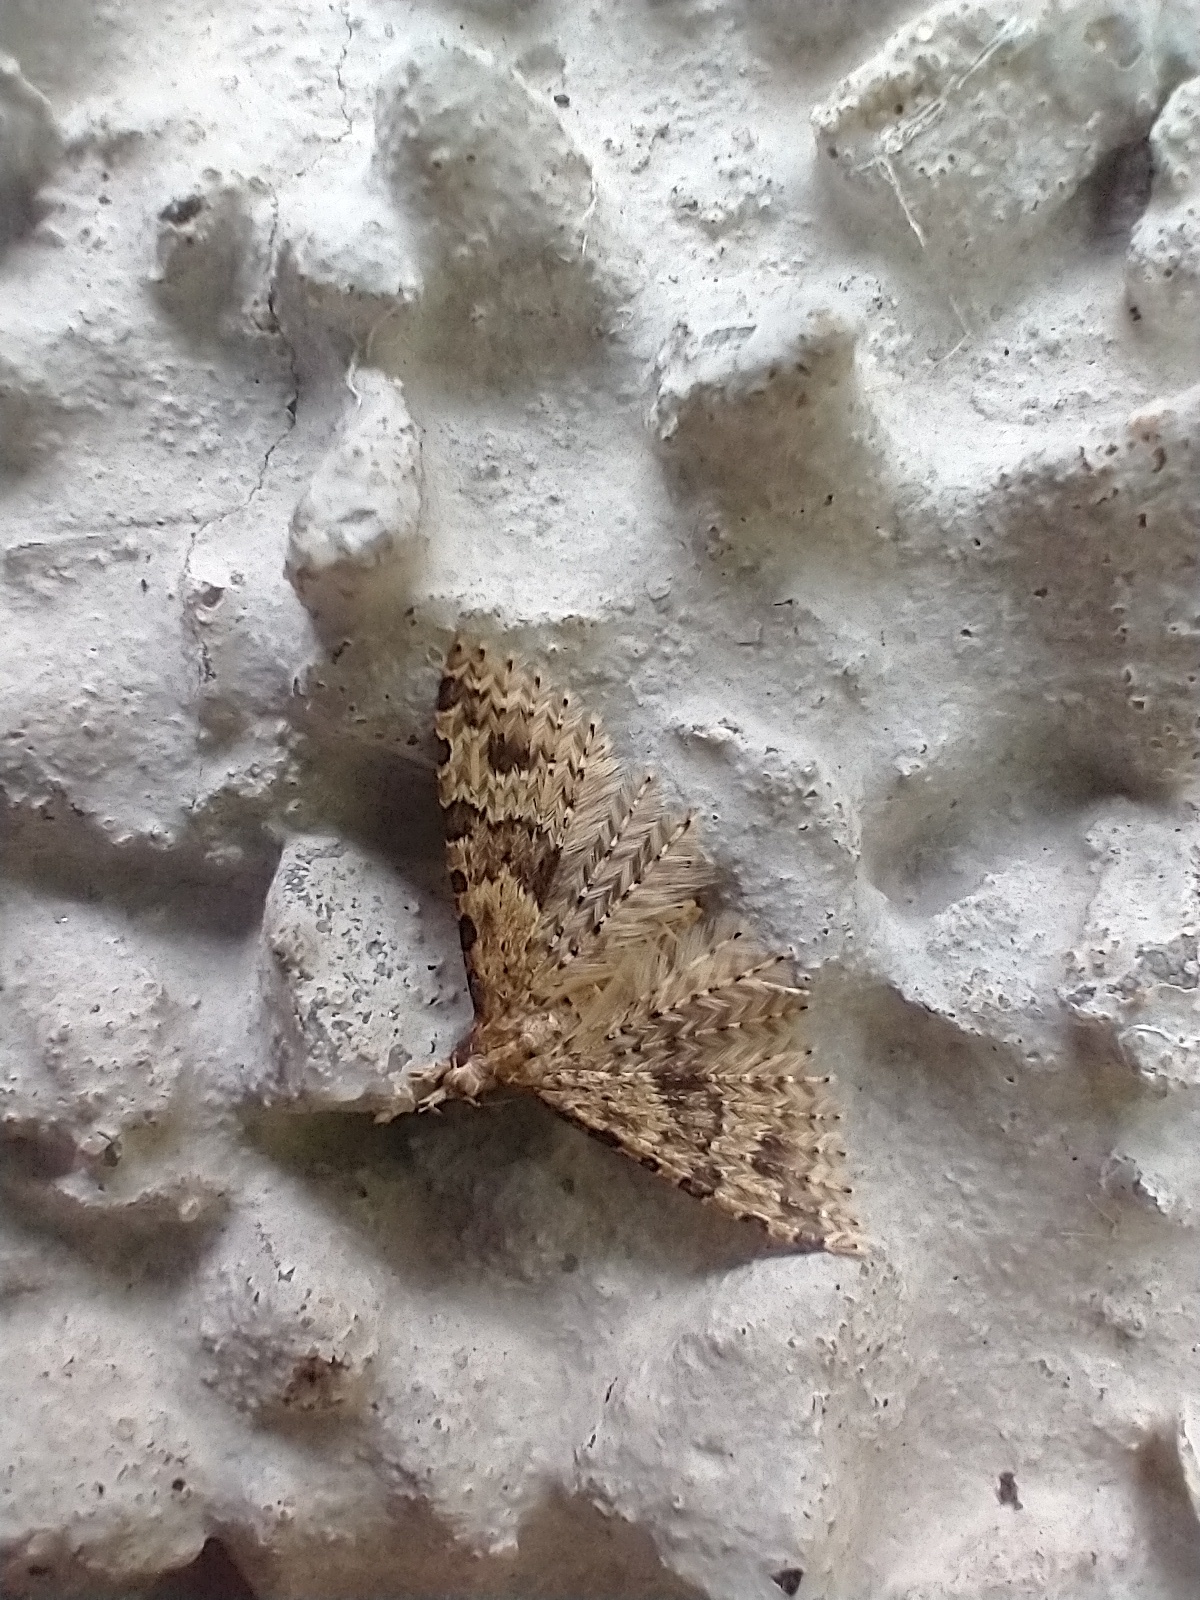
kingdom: Animalia
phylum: Arthropoda
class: Insecta
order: Lepidoptera
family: Alucitidae
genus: Alucita
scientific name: Alucita hexadactyla
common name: Twenty-plume moth
